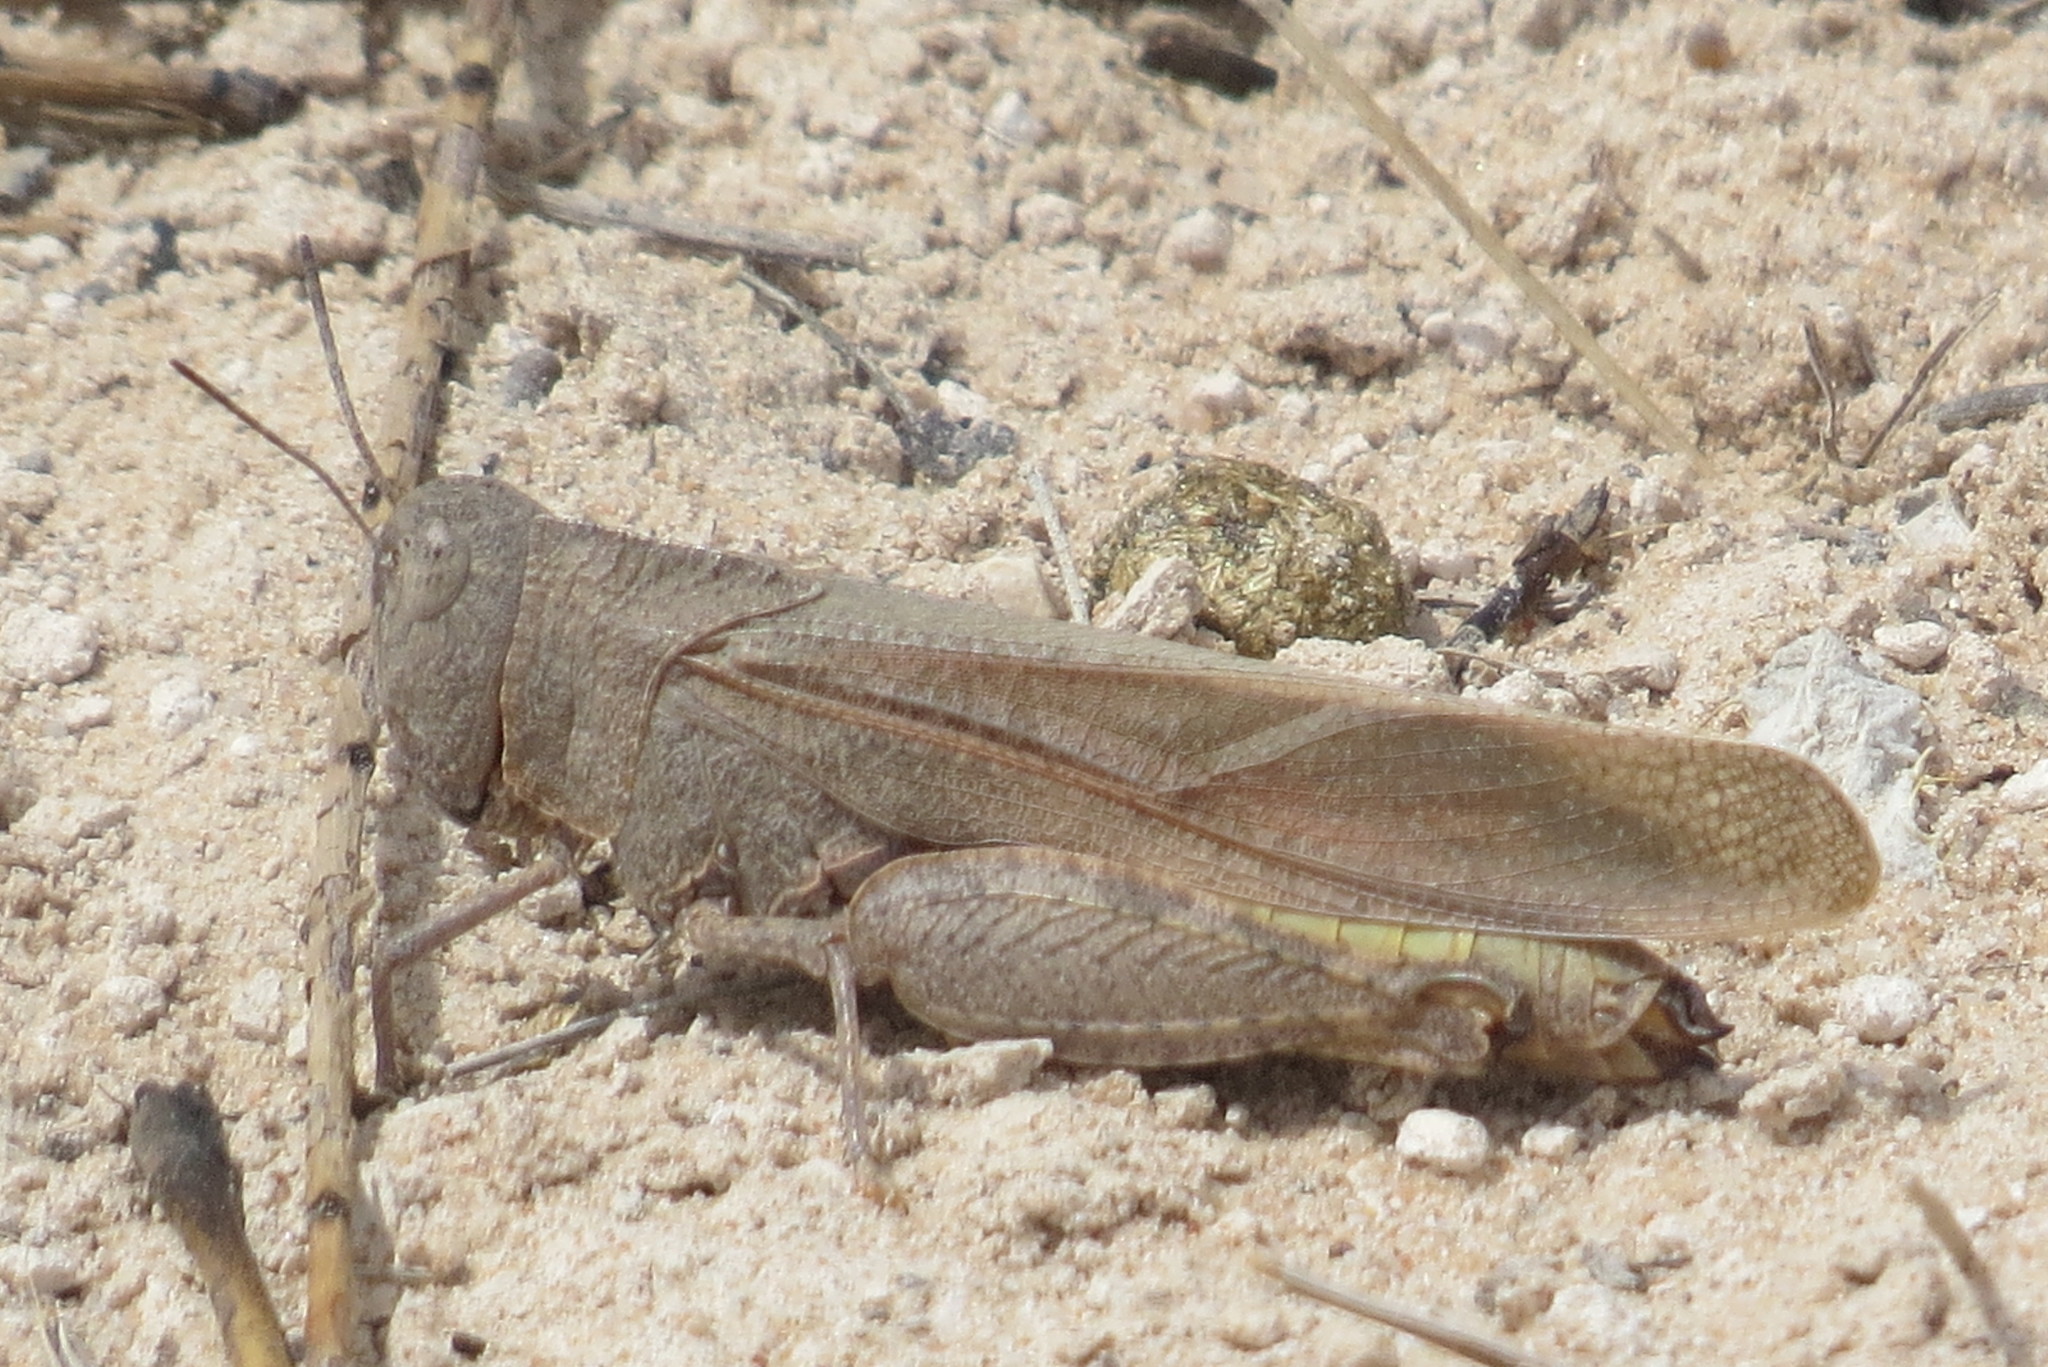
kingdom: Animalia
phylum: Arthropoda
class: Insecta
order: Orthoptera
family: Acrididae
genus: Arphia
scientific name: Arphia conspersa
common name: Speckle-winged rangeland grasshopper
